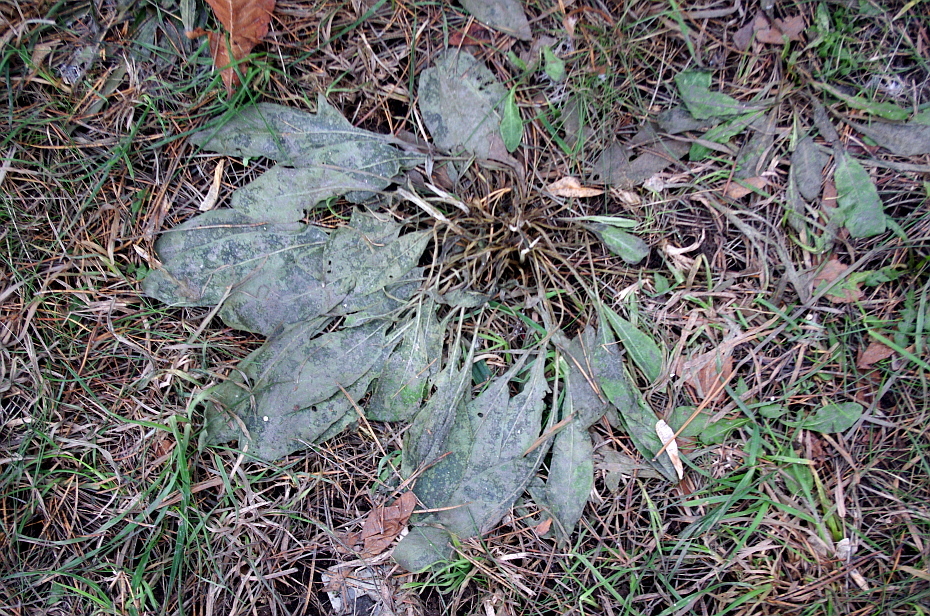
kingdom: Plantae
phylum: Tracheophyta
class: Magnoliopsida
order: Asterales
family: Asteraceae
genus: Centaurea
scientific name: Centaurea jacea
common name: Brown knapweed
